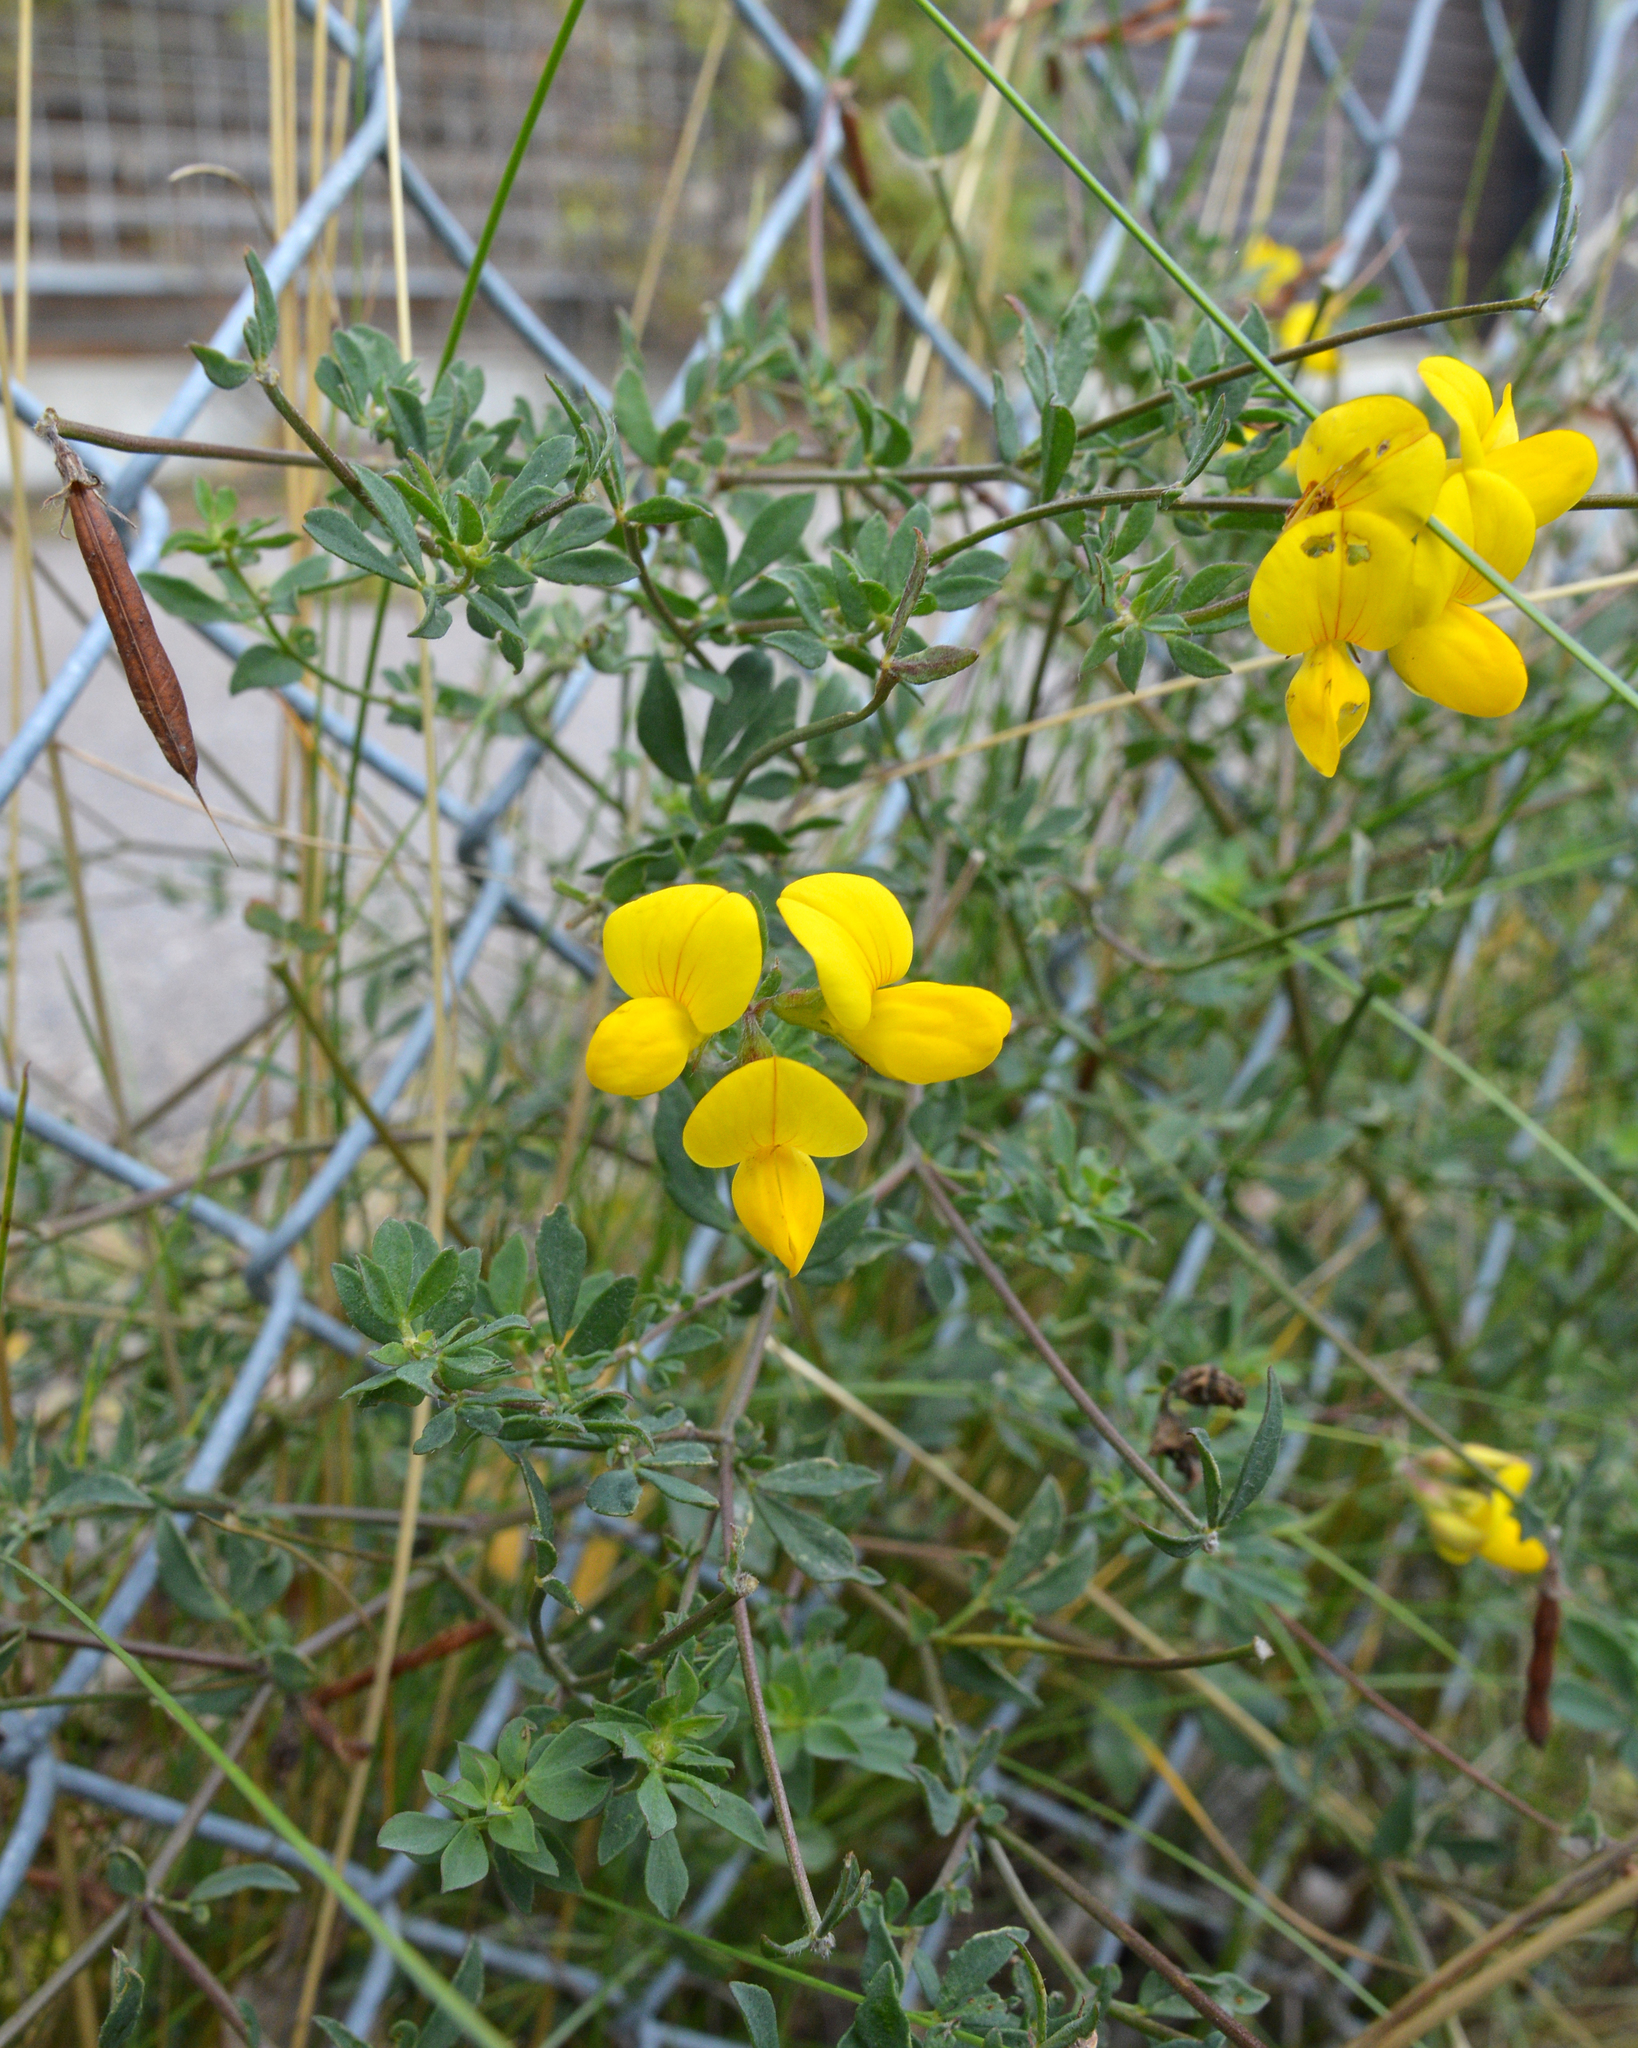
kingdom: Plantae
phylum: Tracheophyta
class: Magnoliopsida
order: Fabales
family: Fabaceae
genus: Lotus
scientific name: Lotus corniculatus
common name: Common bird's-foot-trefoil
